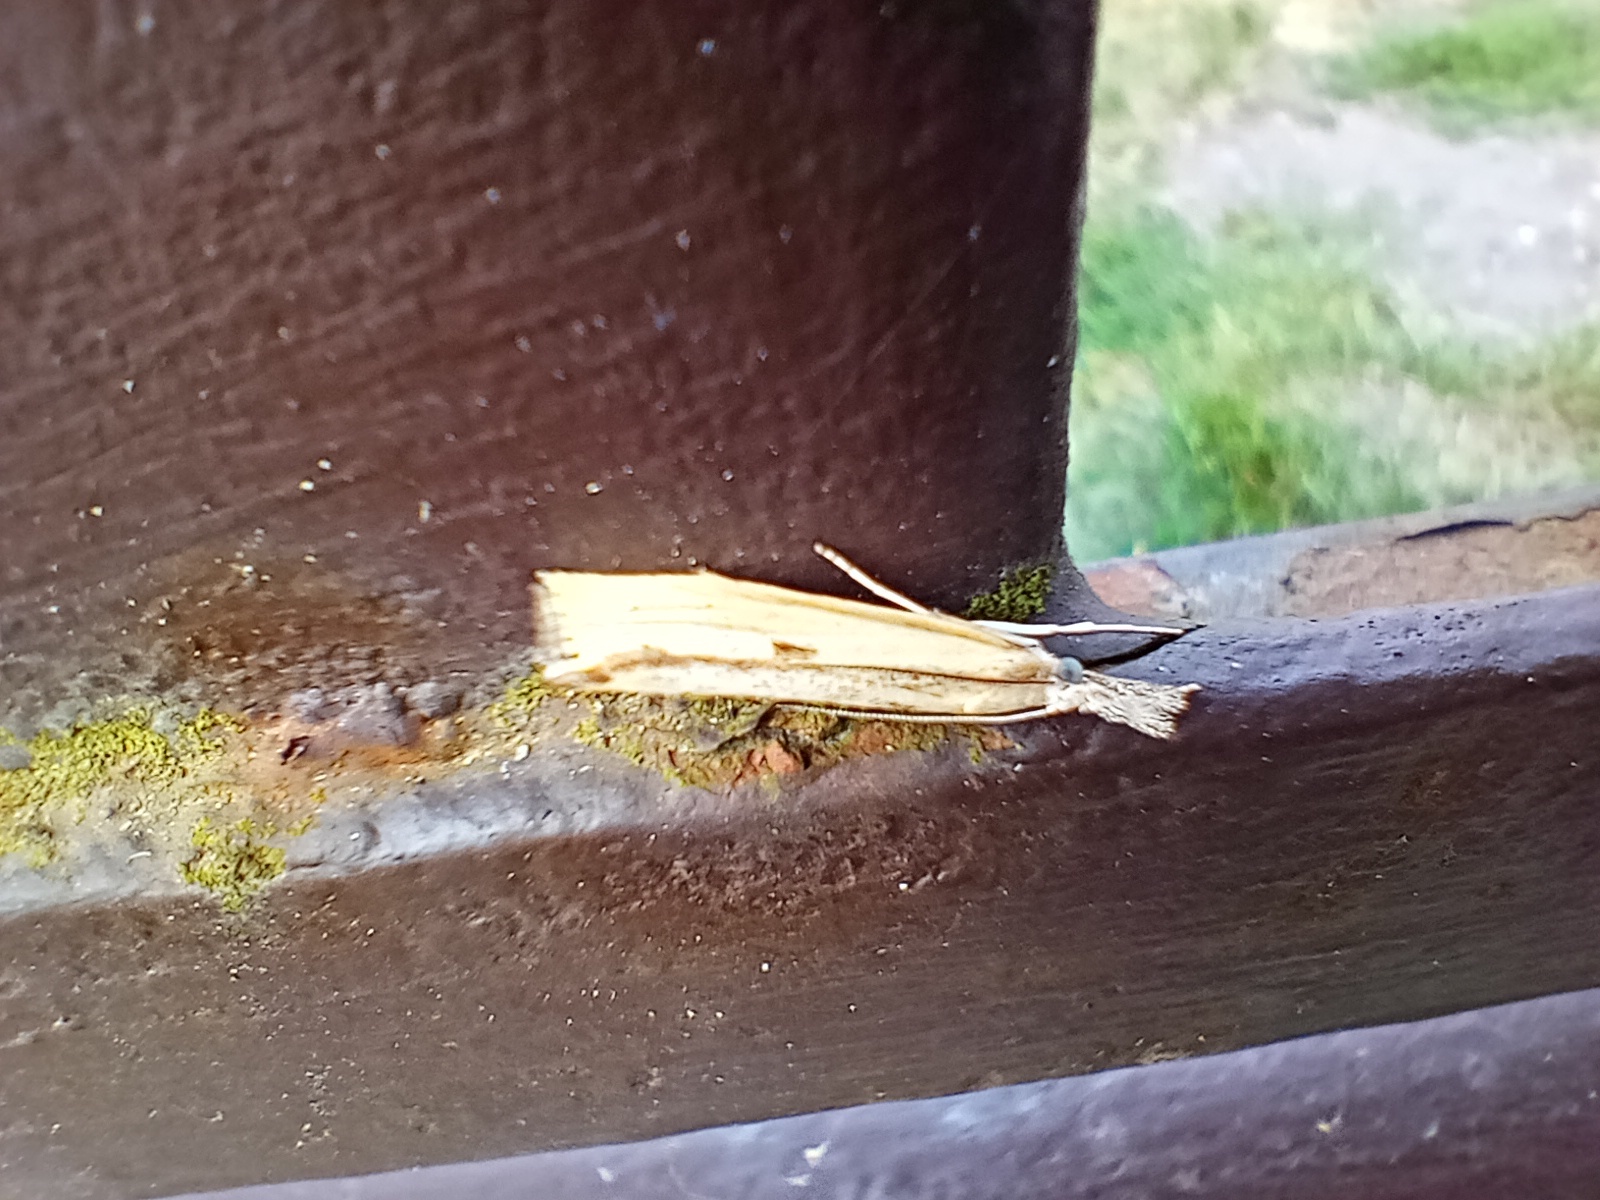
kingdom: Animalia
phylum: Arthropoda
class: Insecta
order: Lepidoptera
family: Crambidae
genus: Agriphila
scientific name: Agriphila inquinatella
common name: Barred grass-veneer
